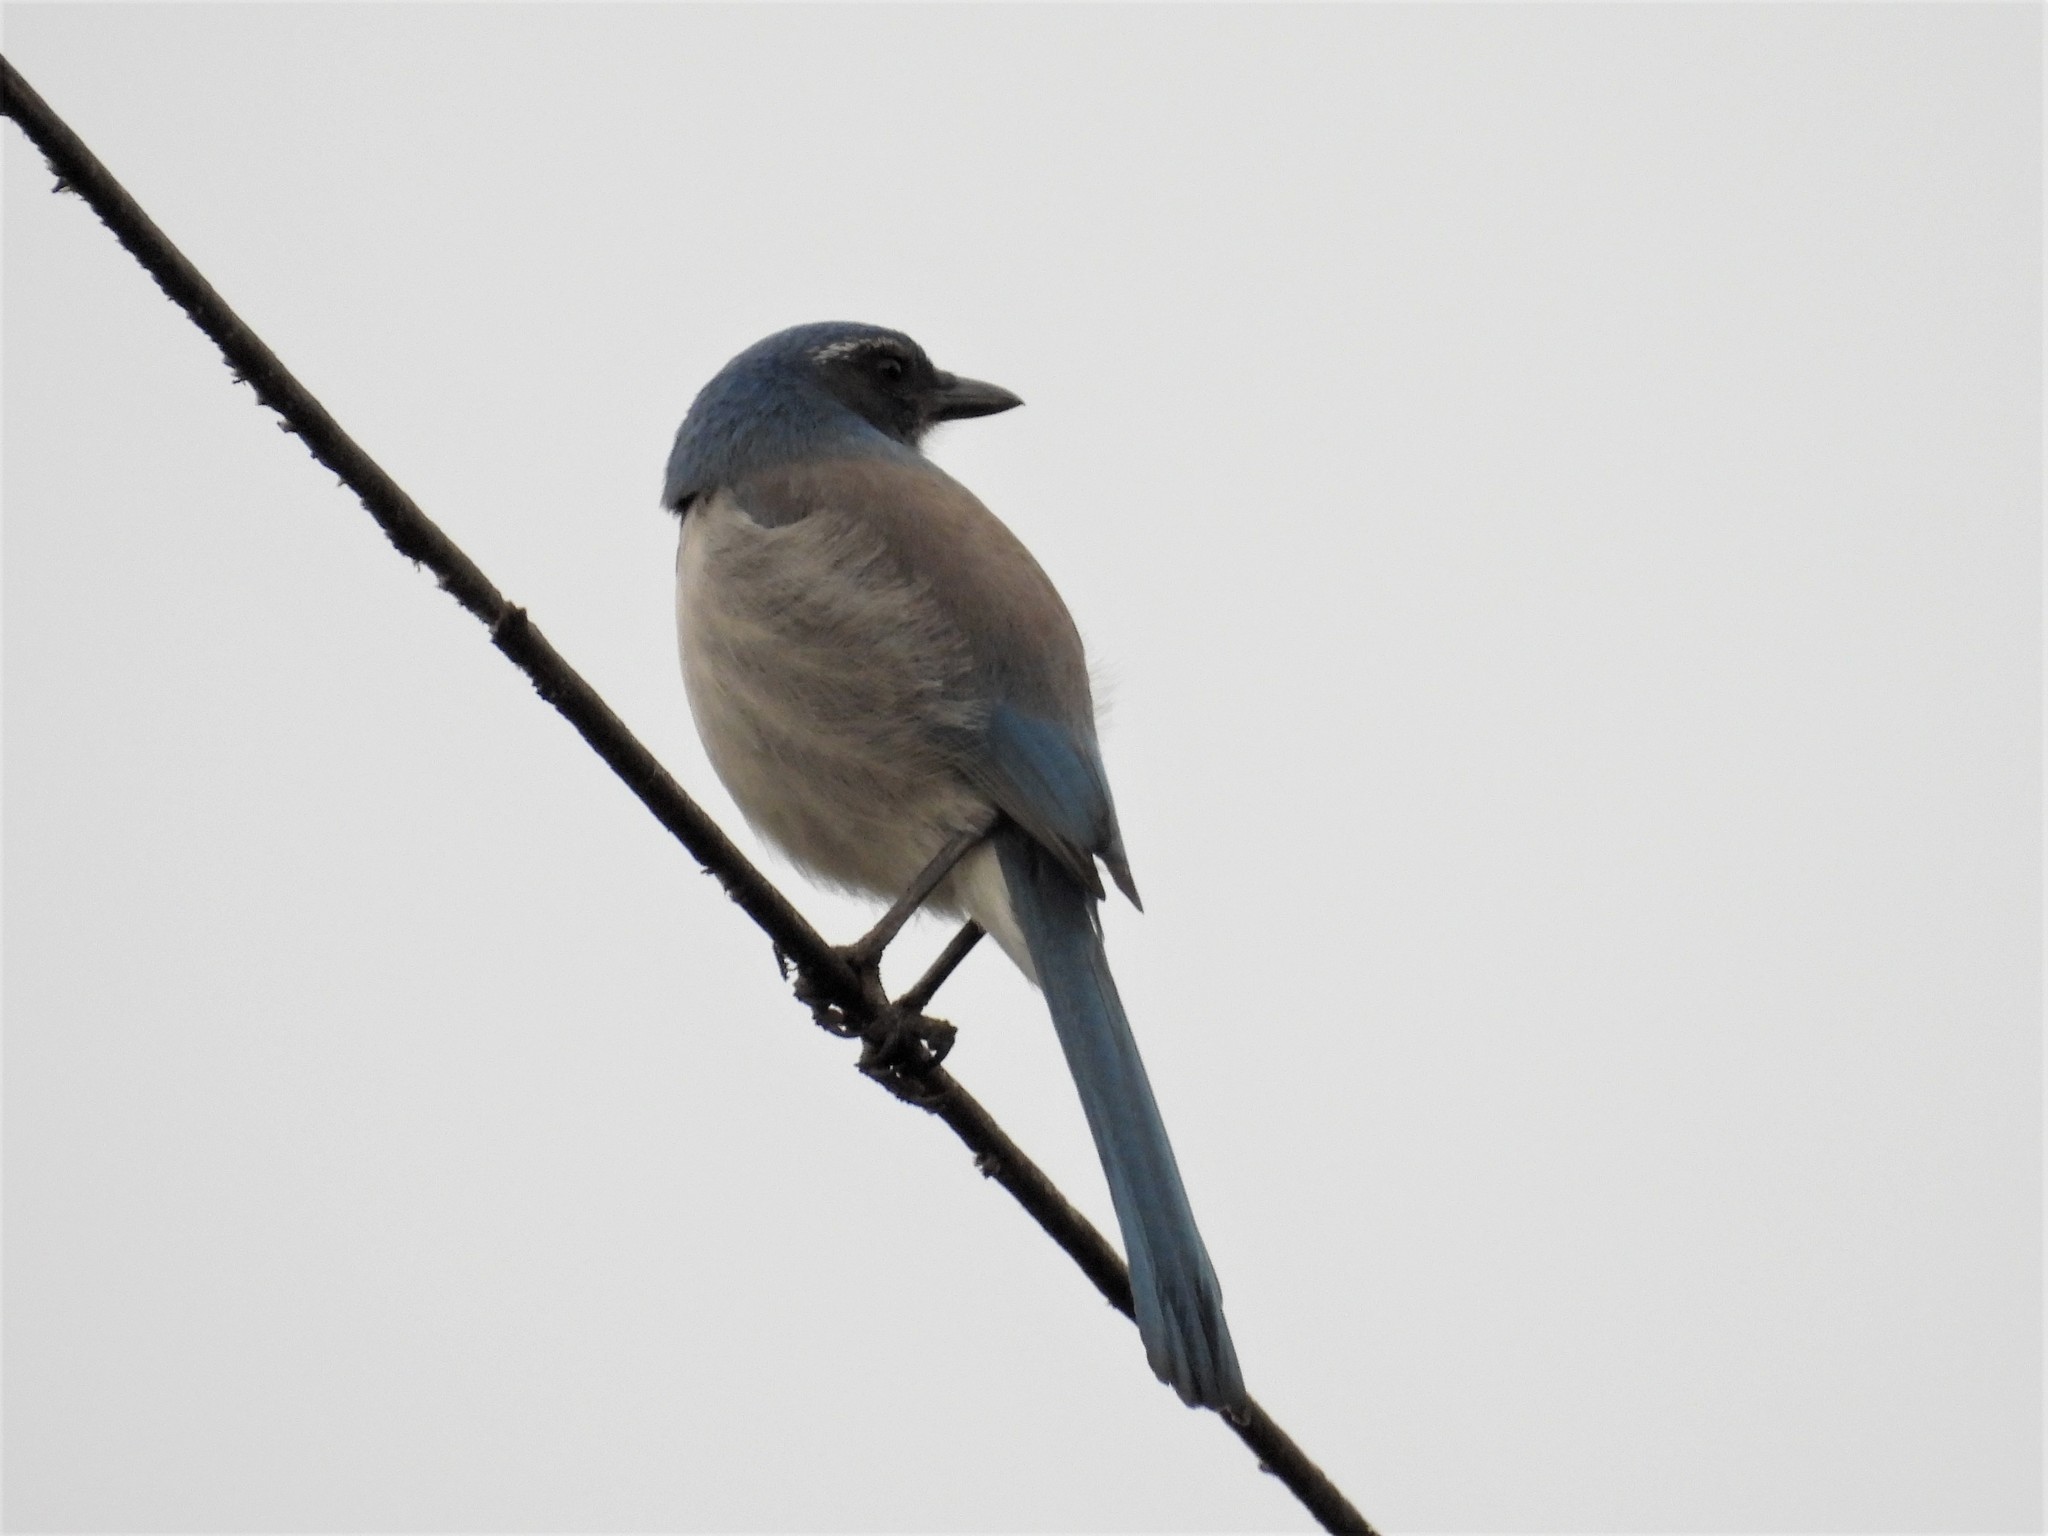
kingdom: Animalia
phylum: Chordata
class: Aves
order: Passeriformes
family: Corvidae
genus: Aphelocoma
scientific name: Aphelocoma californica
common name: California scrub-jay
